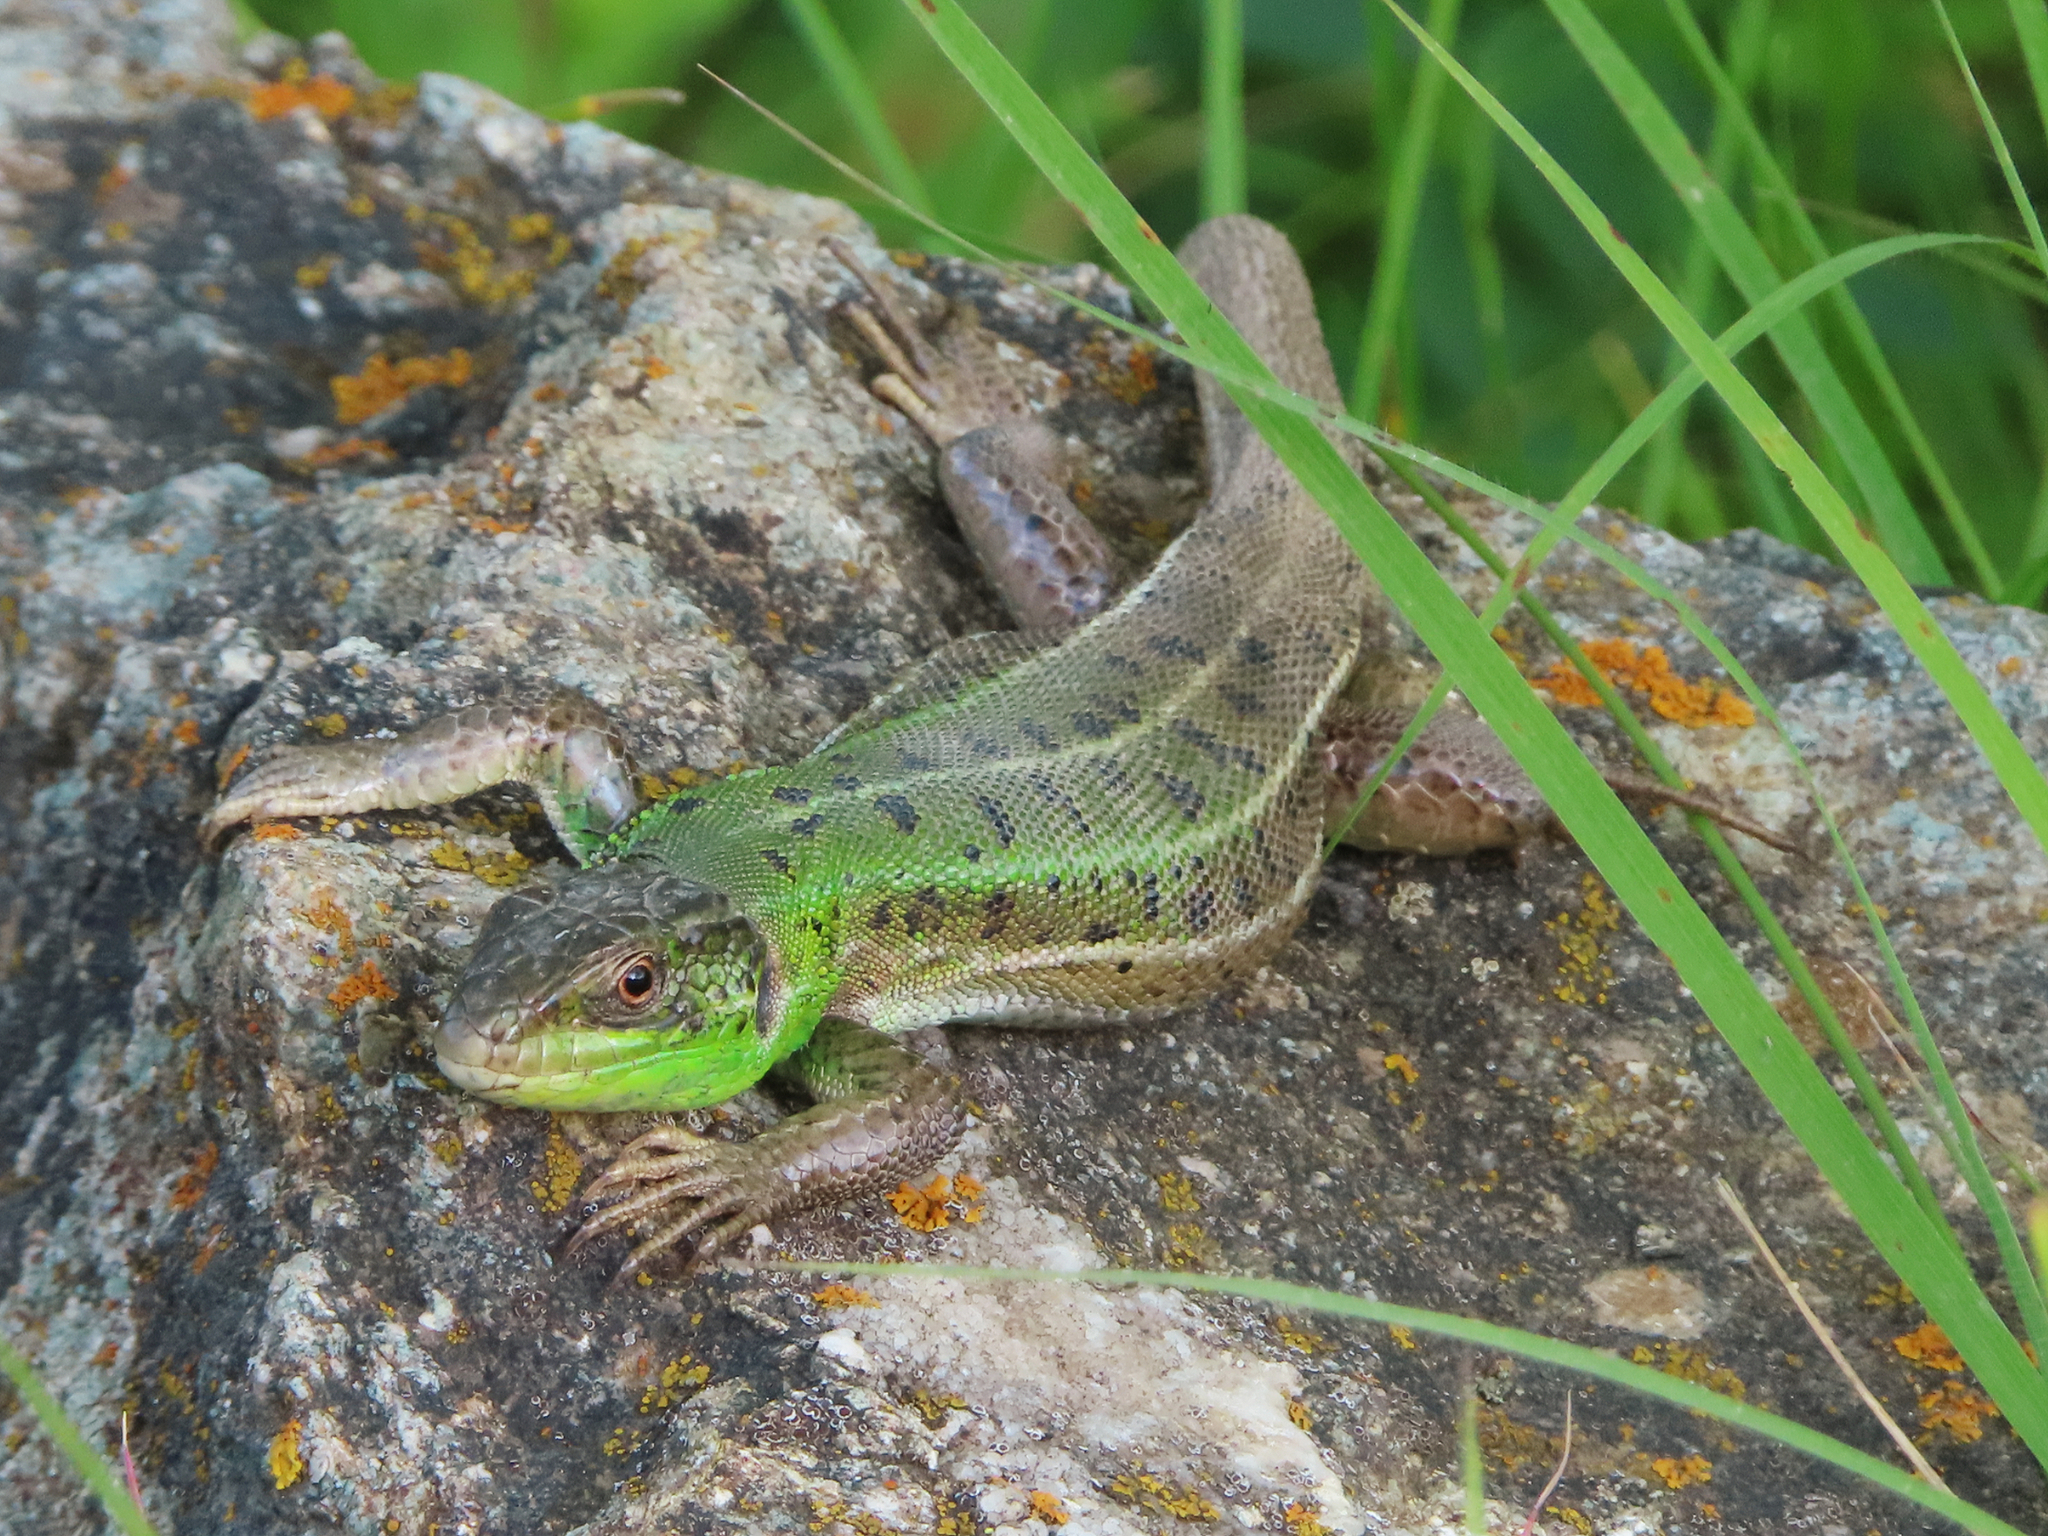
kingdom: Animalia
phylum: Chordata
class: Squamata
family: Lacertidae
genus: Lacerta
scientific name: Lacerta strigata
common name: Caspian green lizard
